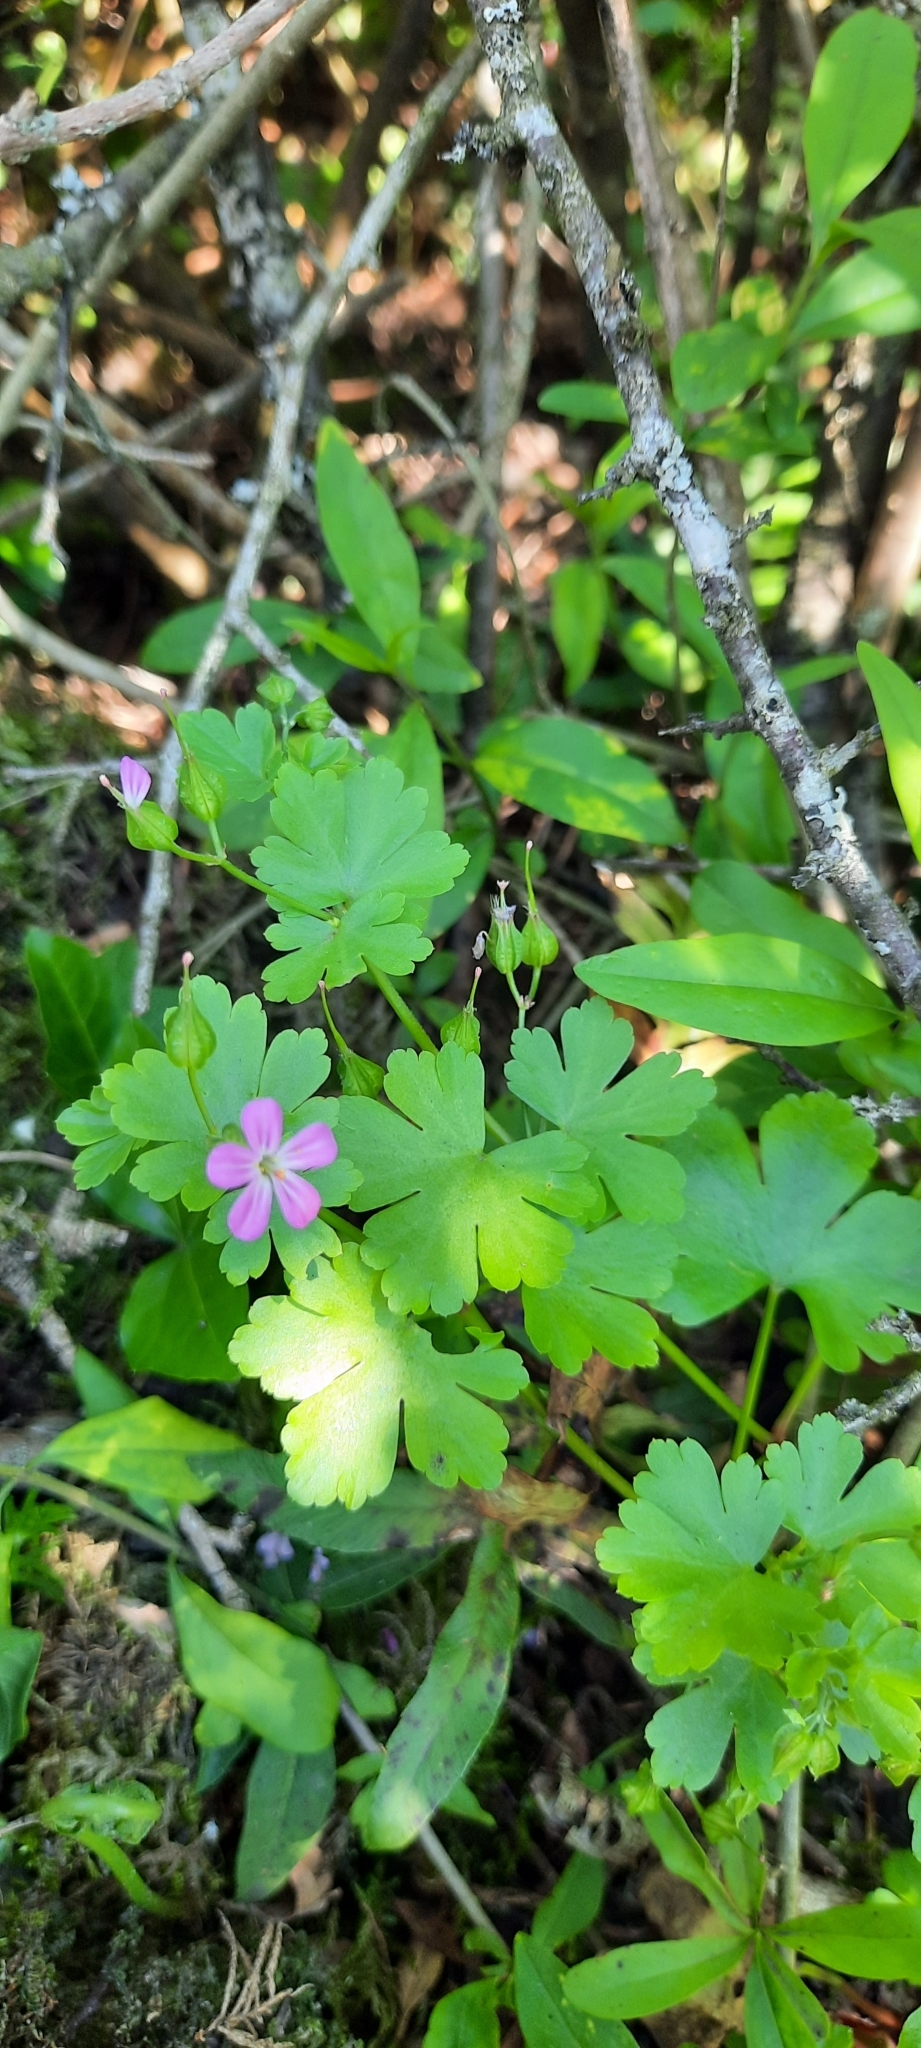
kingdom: Plantae
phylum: Tracheophyta
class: Magnoliopsida
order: Geraniales
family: Geraniaceae
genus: Geranium
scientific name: Geranium lucidum
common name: Shining crane's-bill
